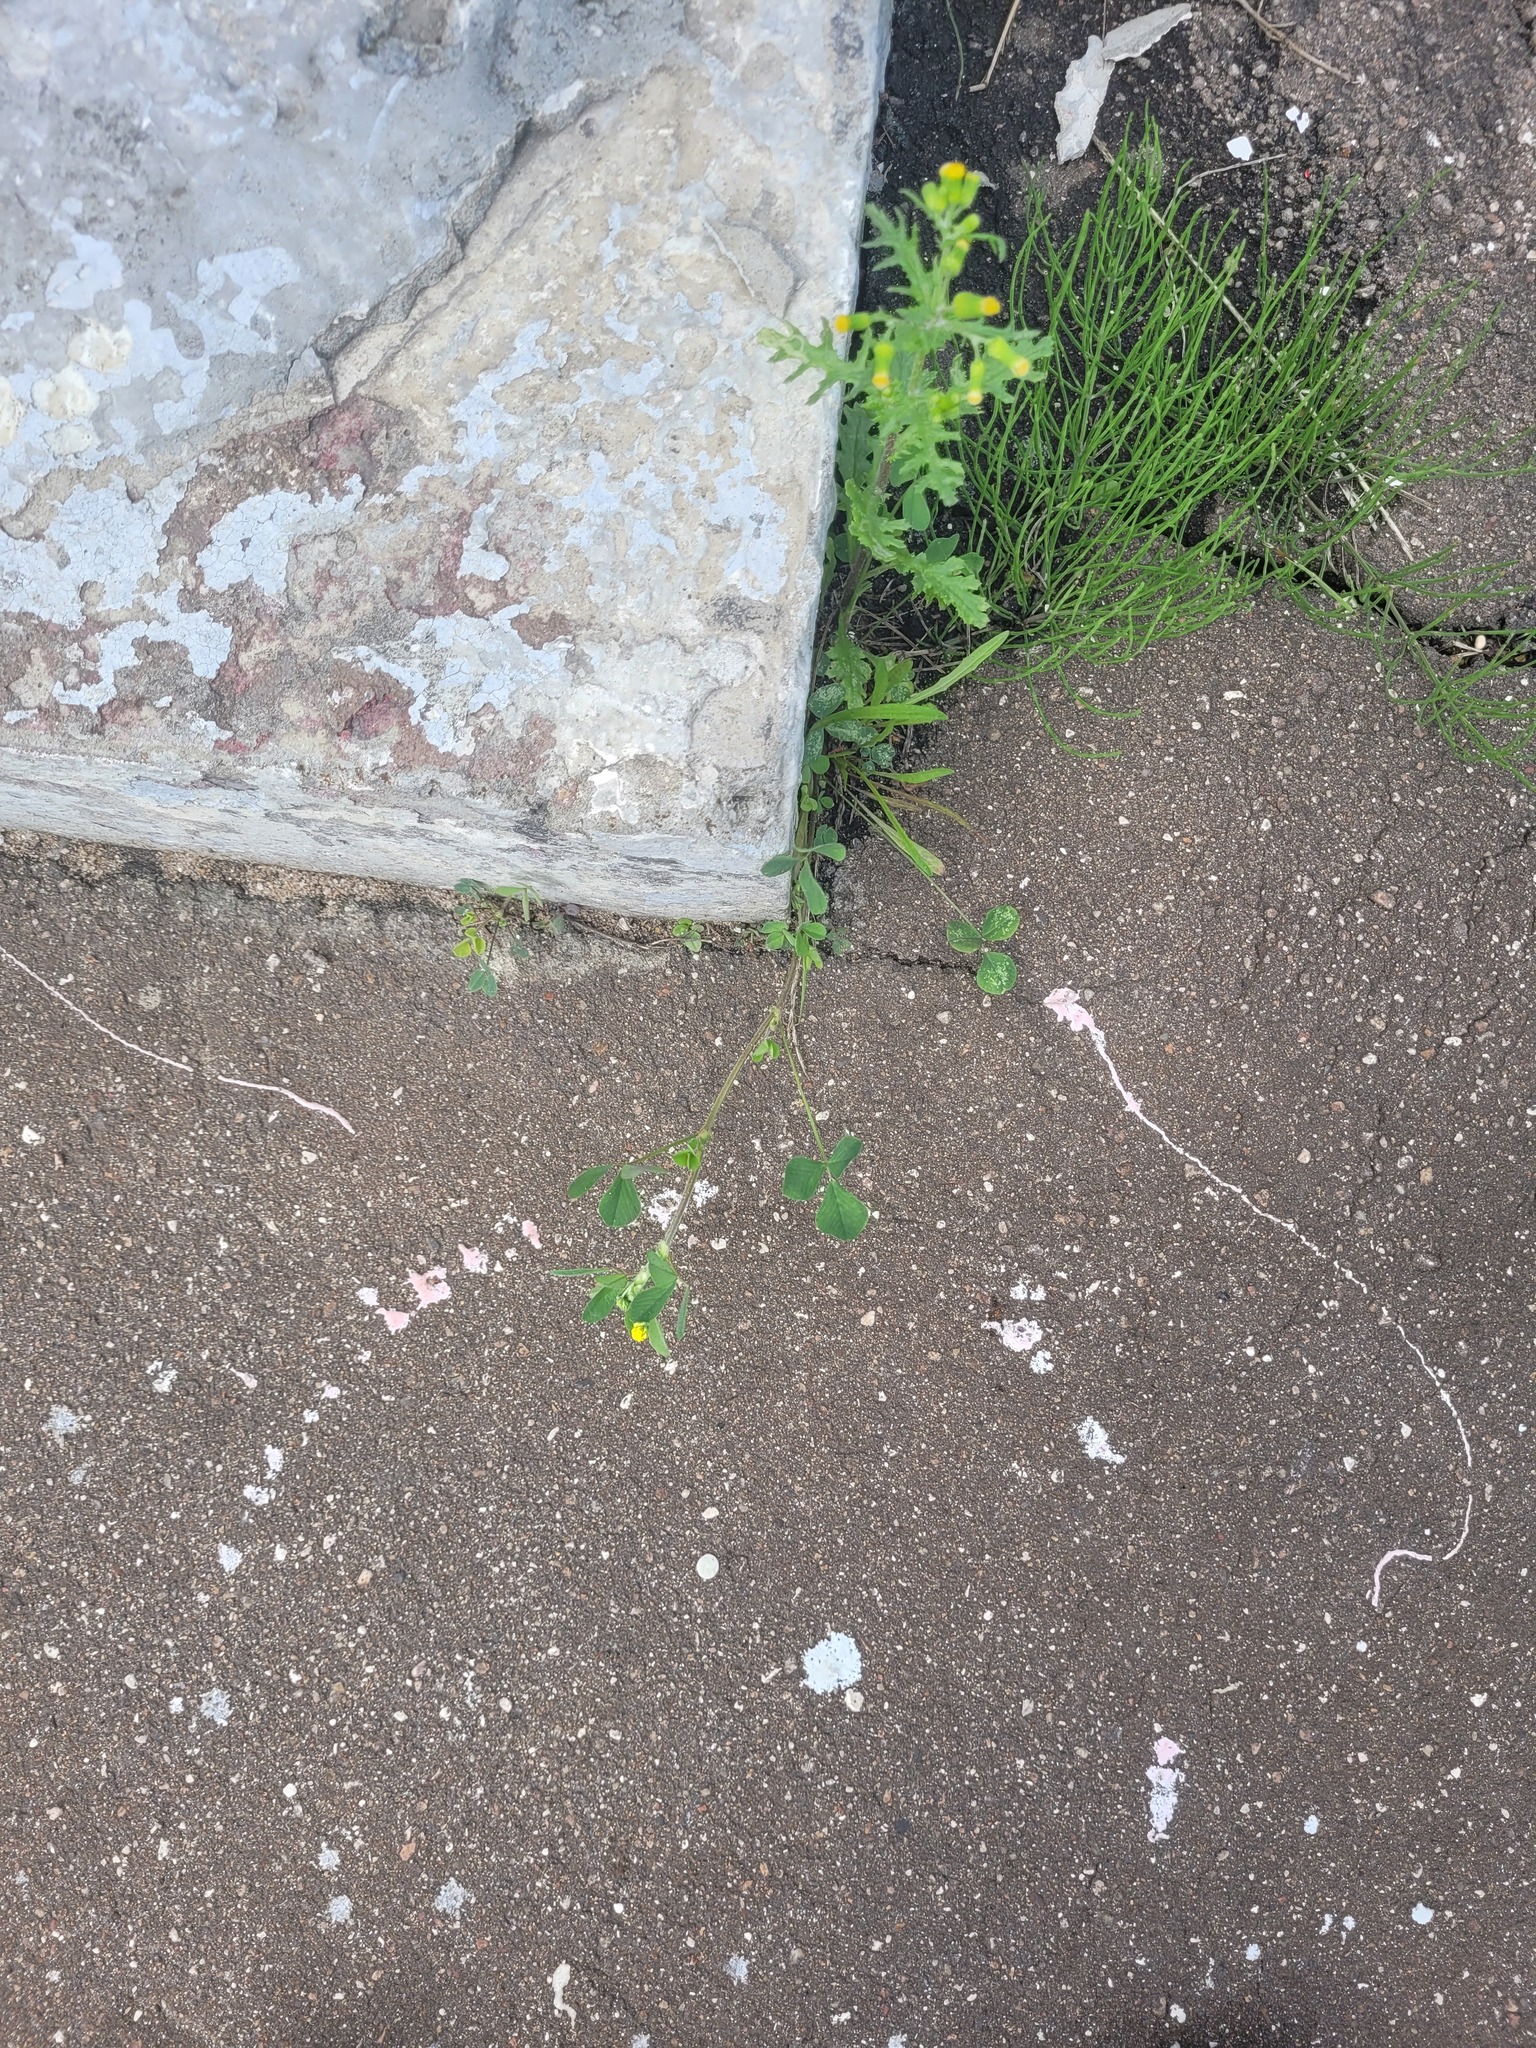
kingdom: Plantae
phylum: Tracheophyta
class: Magnoliopsida
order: Fabales
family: Fabaceae
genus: Medicago
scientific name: Medicago lupulina
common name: Black medick
